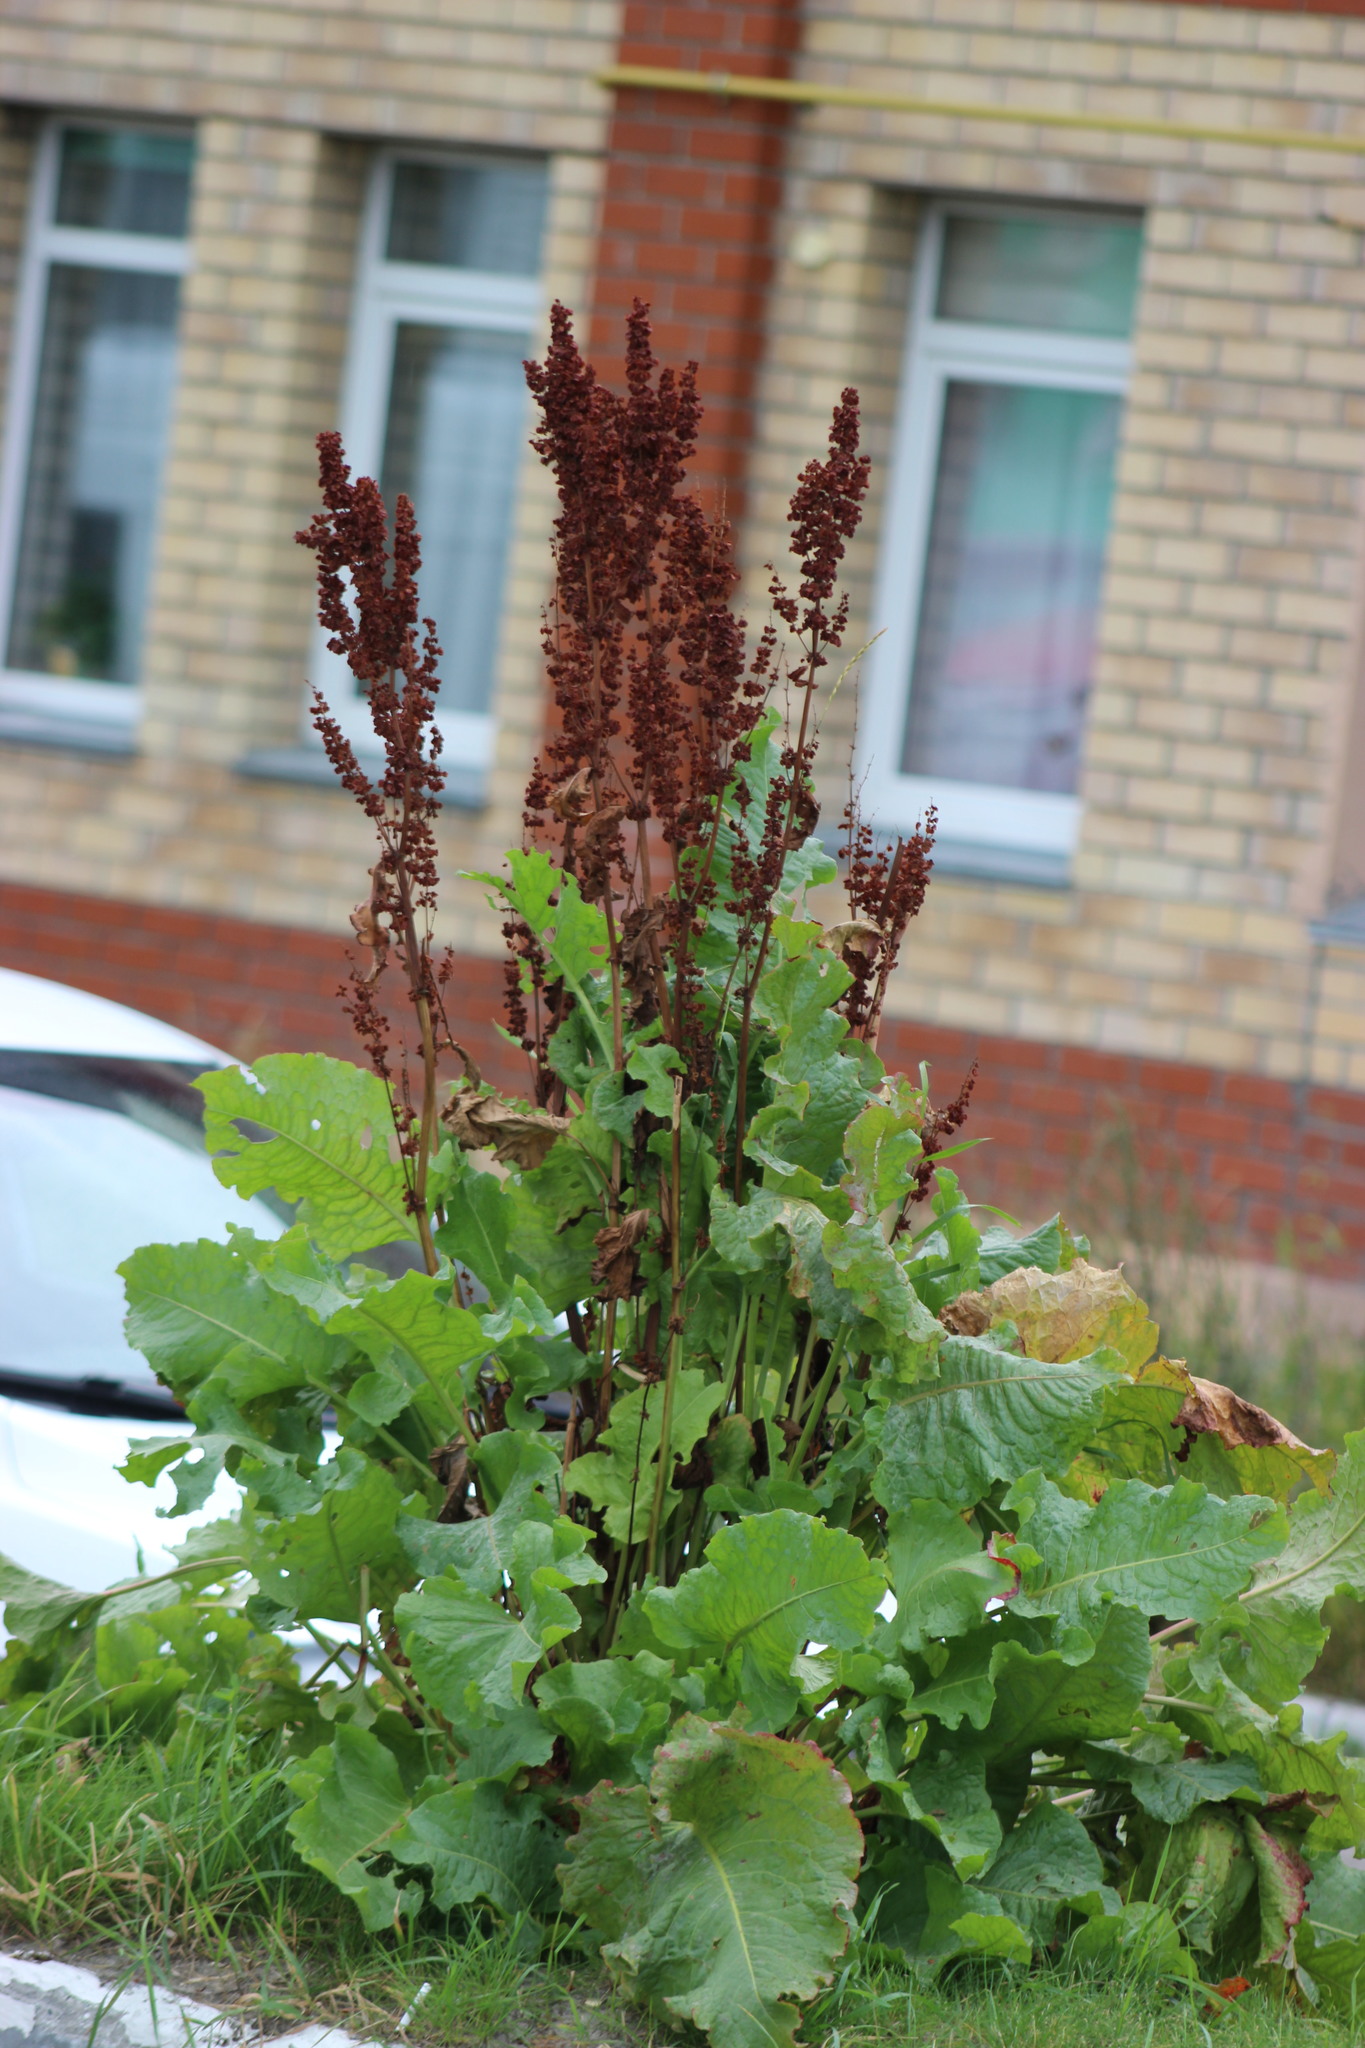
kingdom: Plantae
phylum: Tracheophyta
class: Magnoliopsida
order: Caryophyllales
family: Polygonaceae
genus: Rumex
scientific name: Rumex confertus
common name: Russian dock
